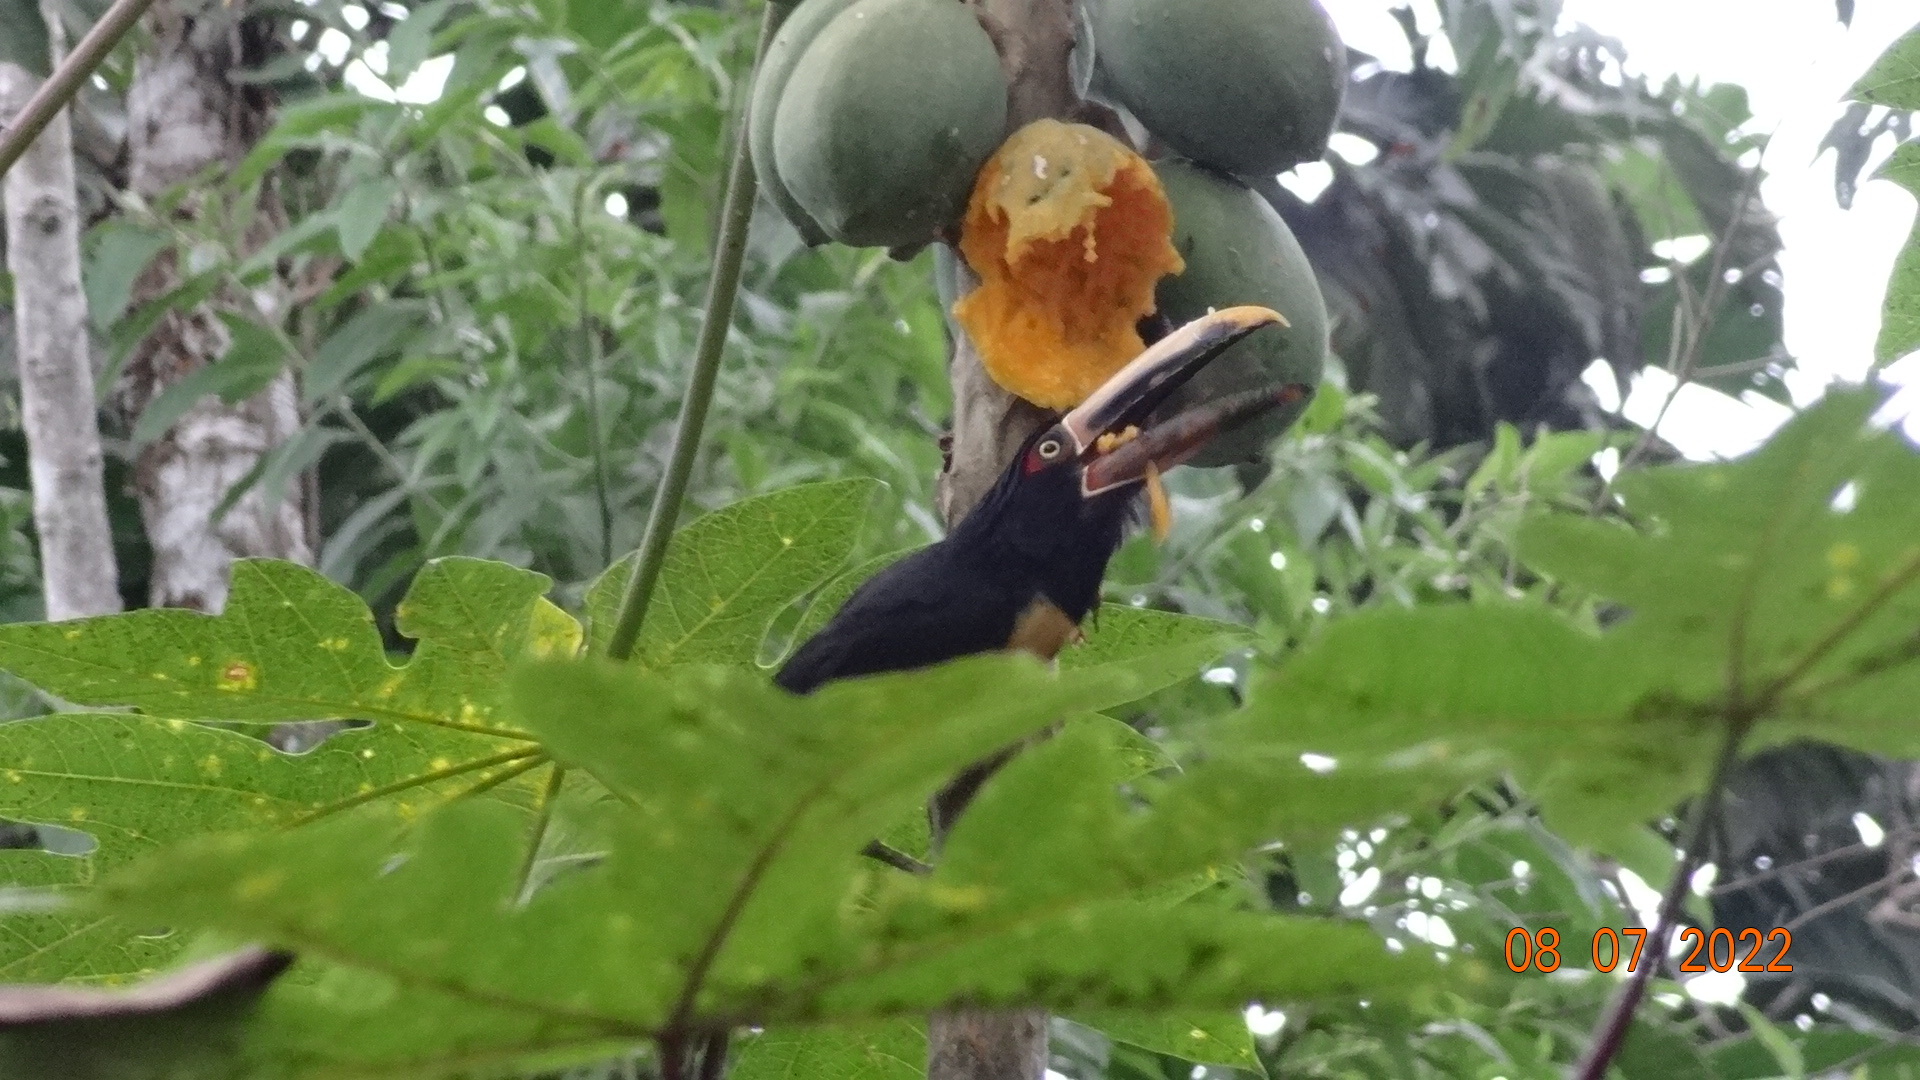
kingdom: Animalia
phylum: Chordata
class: Aves
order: Piciformes
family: Ramphastidae
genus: Pteroglossus
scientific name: Pteroglossus torquatus
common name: Collared aracari
